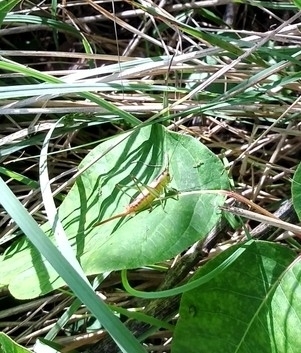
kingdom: Animalia
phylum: Arthropoda
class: Insecta
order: Orthoptera
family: Tettigoniidae
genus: Conocephalus
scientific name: Conocephalus brevipennis
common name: Short-winged meadow katydid
